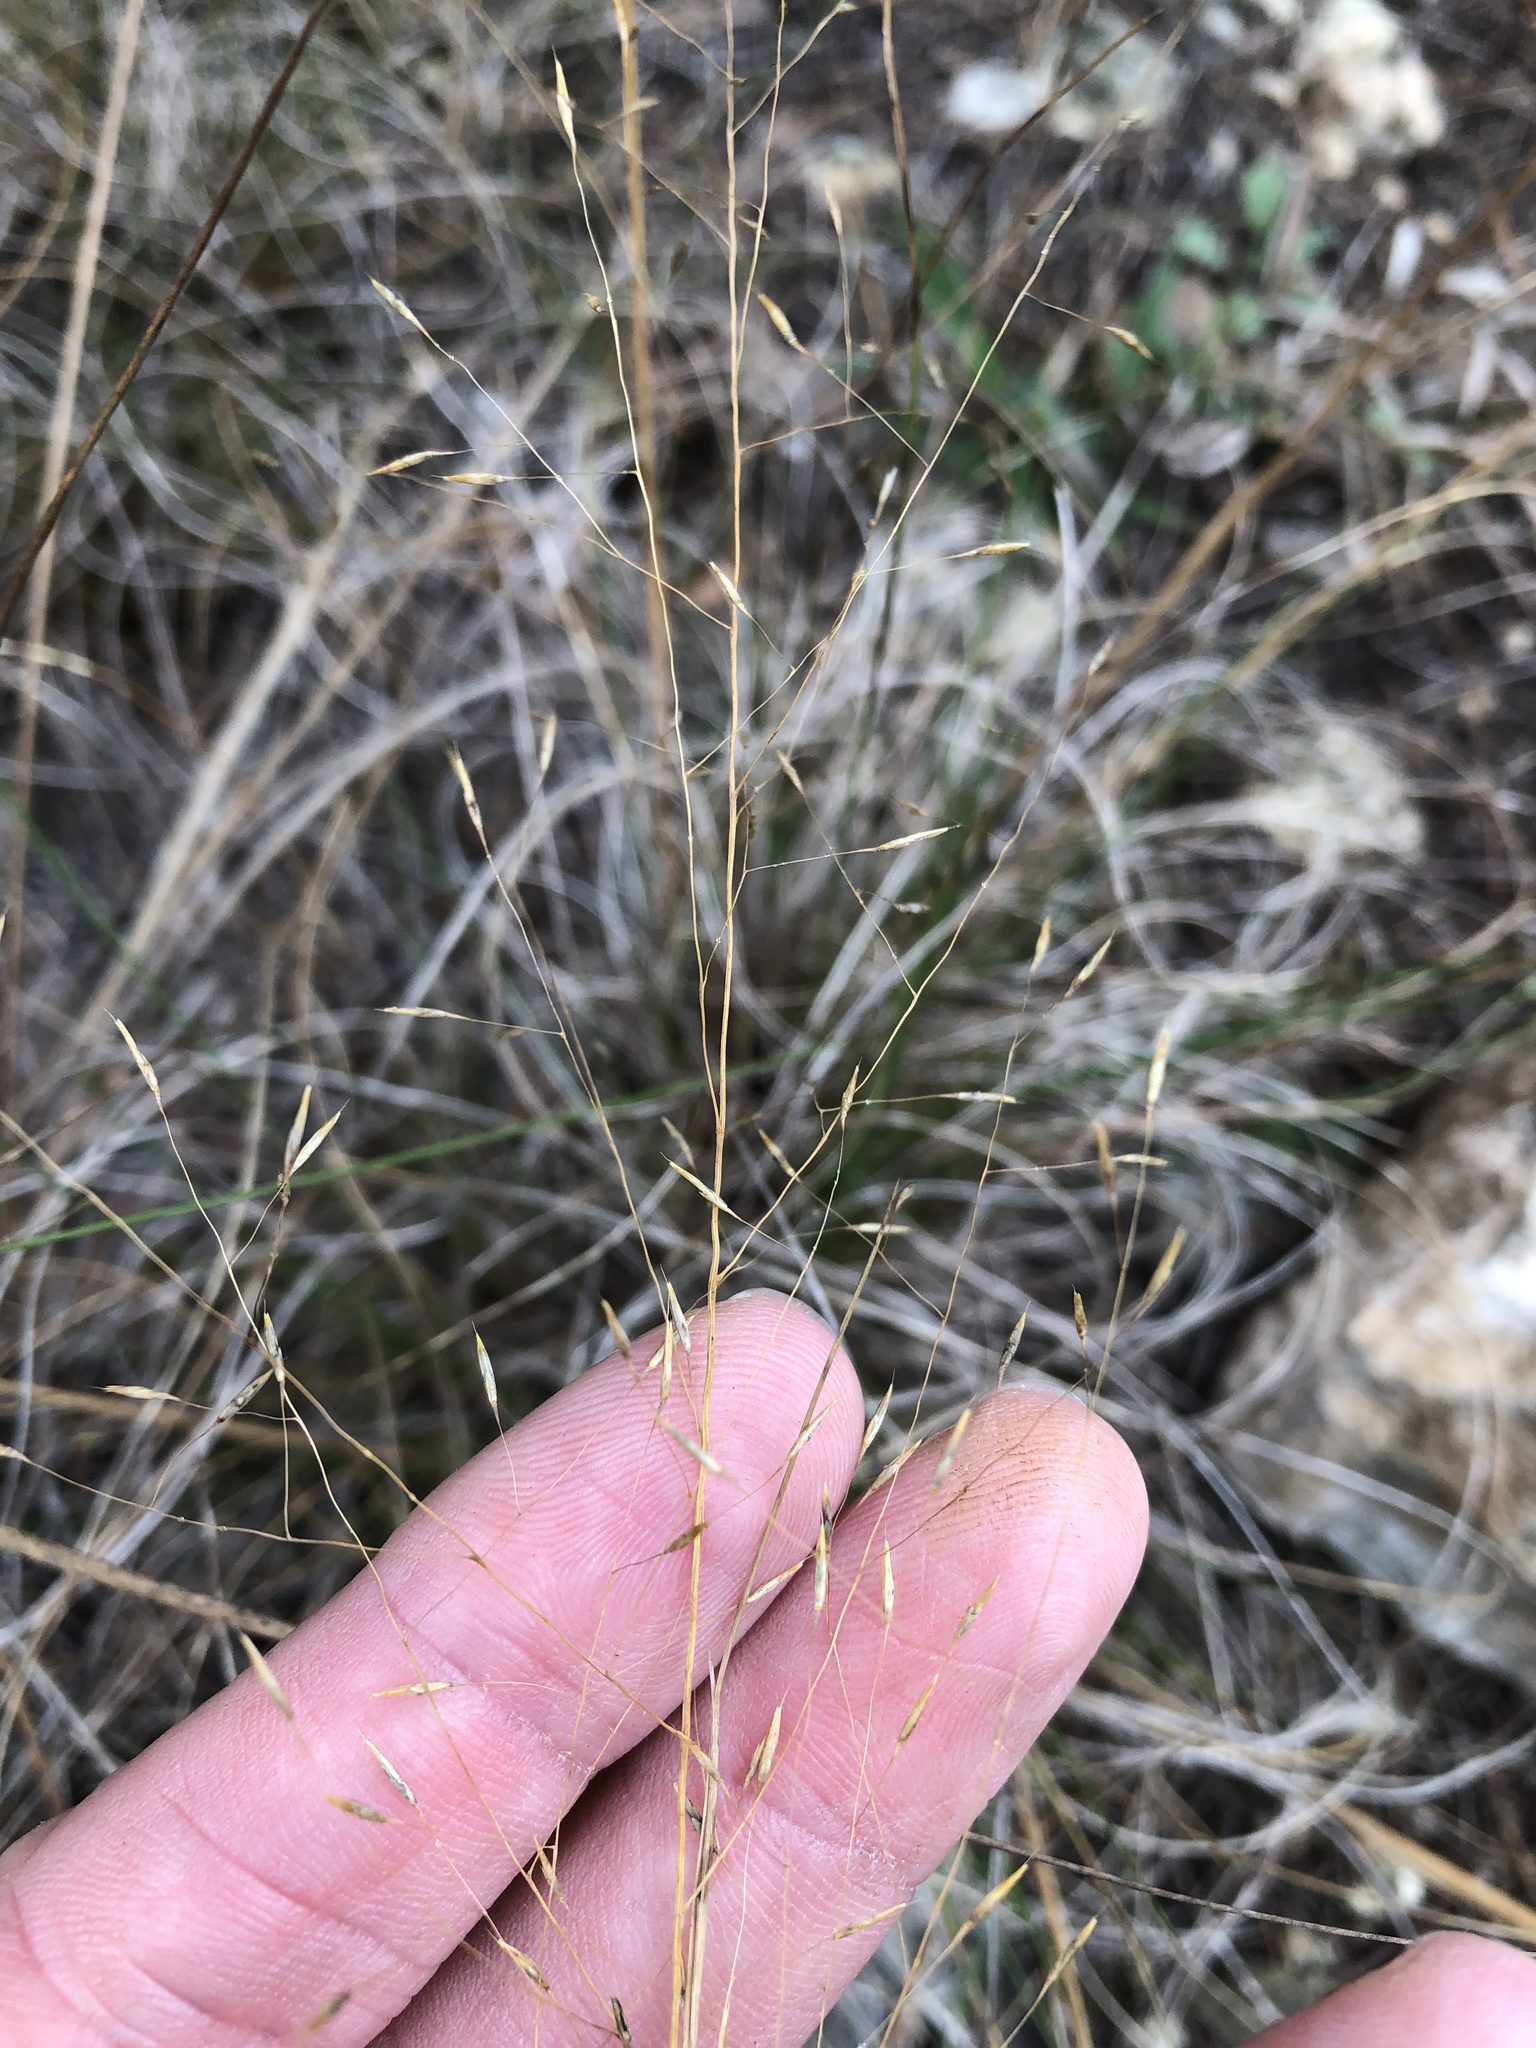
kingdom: Plantae
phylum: Tracheophyta
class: Liliopsida
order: Poales
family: Poaceae
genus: Muhlenbergia
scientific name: Muhlenbergia reverchonii
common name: Seep muhly
